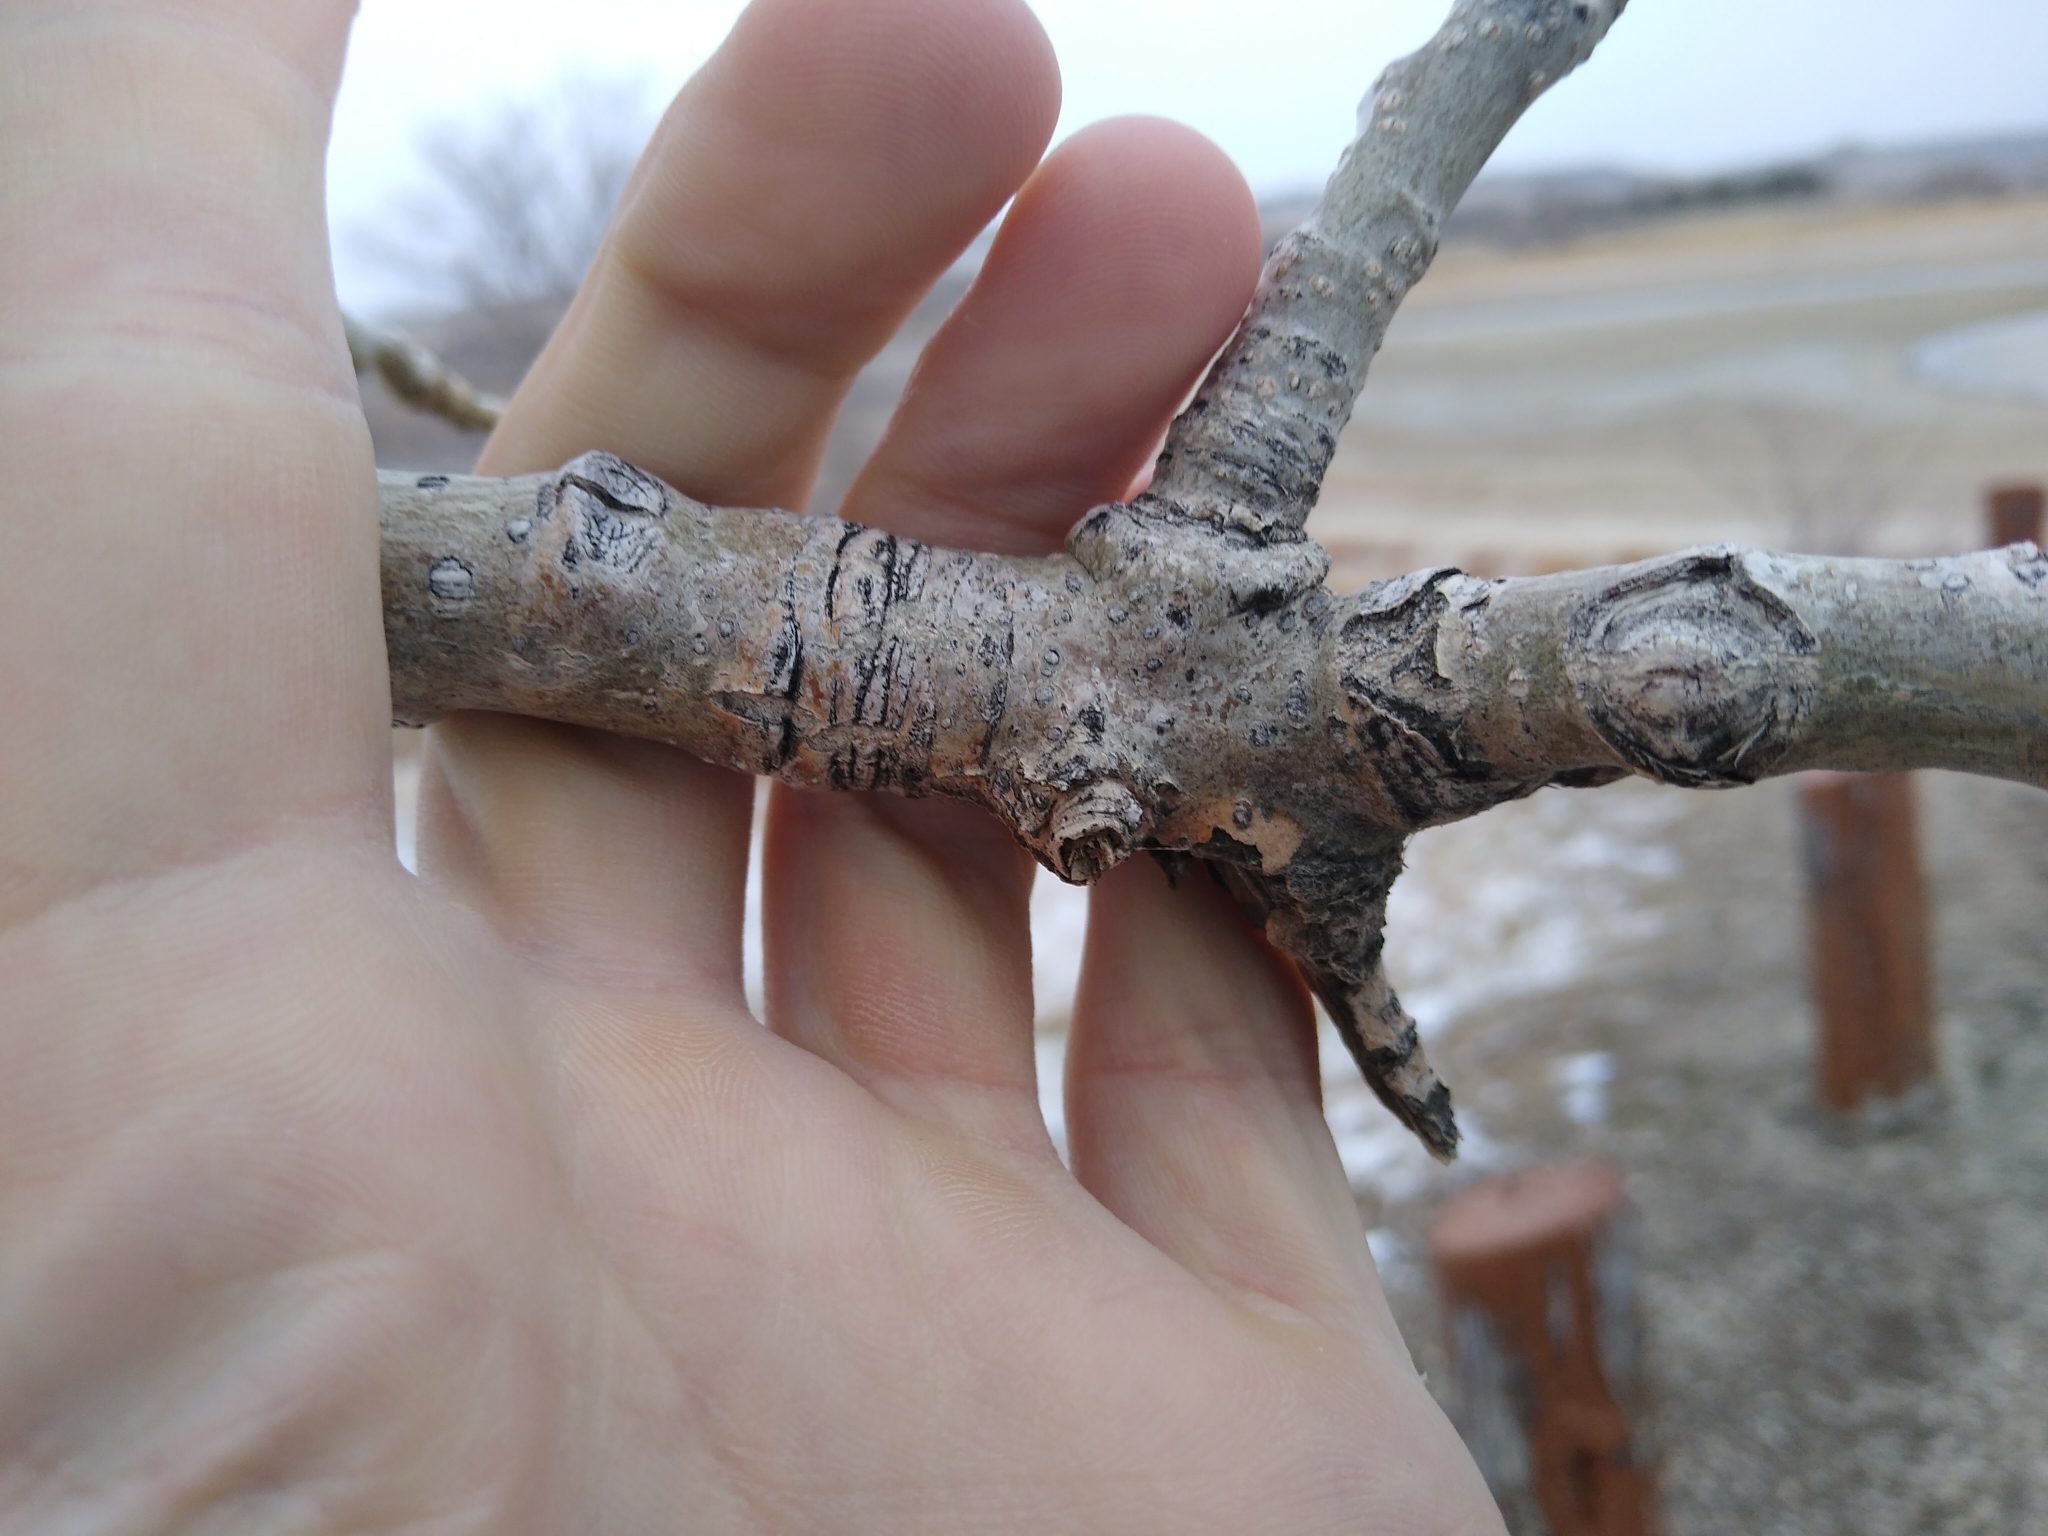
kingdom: Plantae
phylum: Tracheophyta
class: Magnoliopsida
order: Malpighiales
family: Salicaceae
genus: Populus
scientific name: Populus deltoides
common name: Eastern cottonwood
